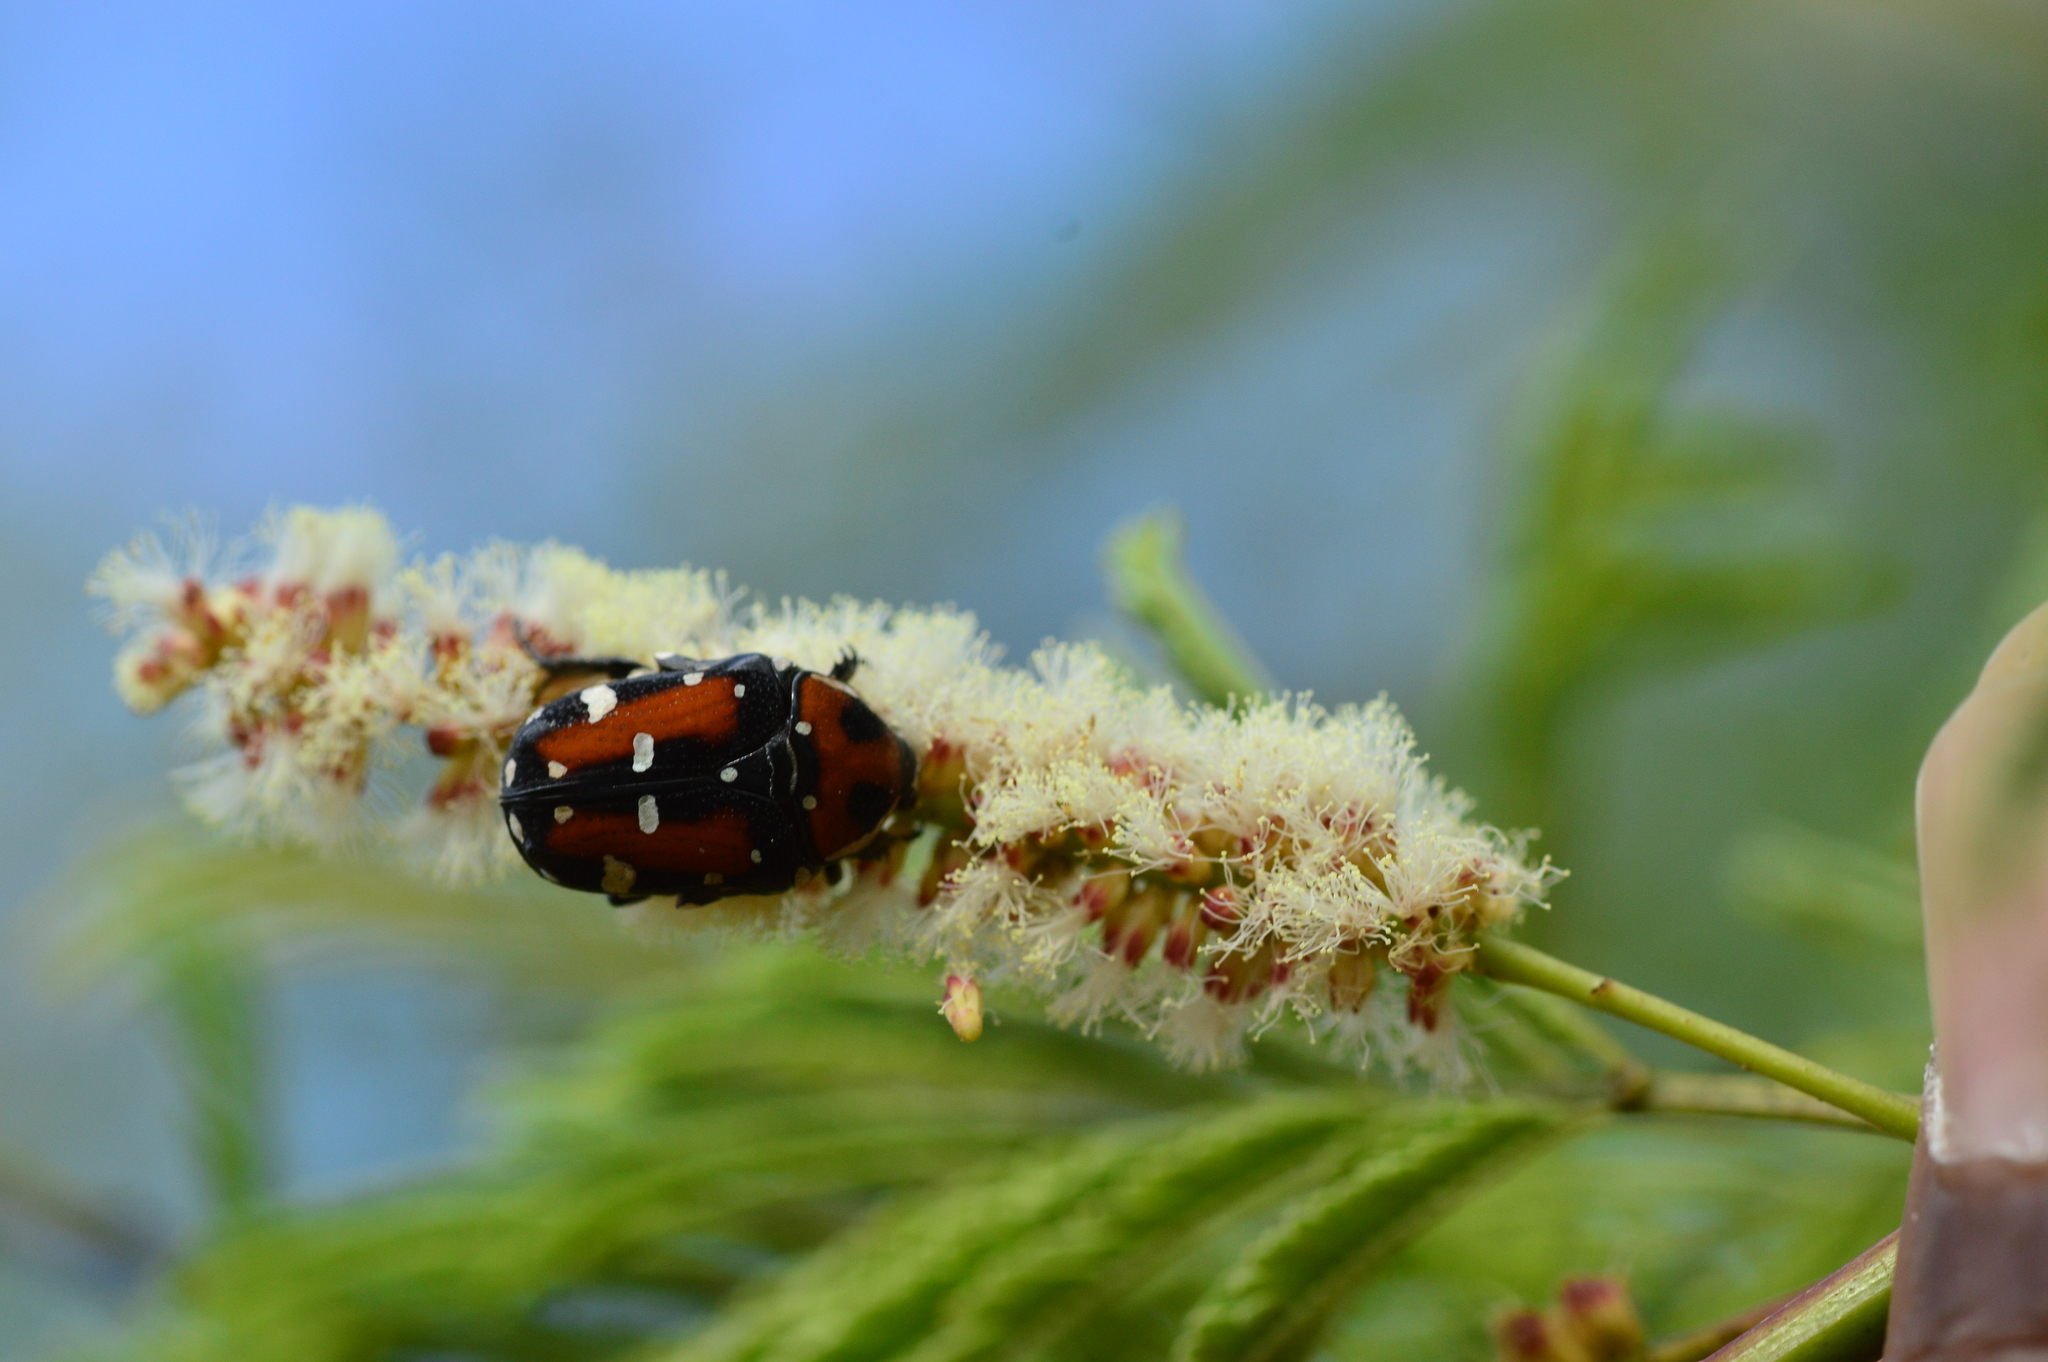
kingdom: Animalia
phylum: Arthropoda
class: Insecta
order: Coleoptera
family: Scarabaeidae
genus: Gametis
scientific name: Gametis versicolor
